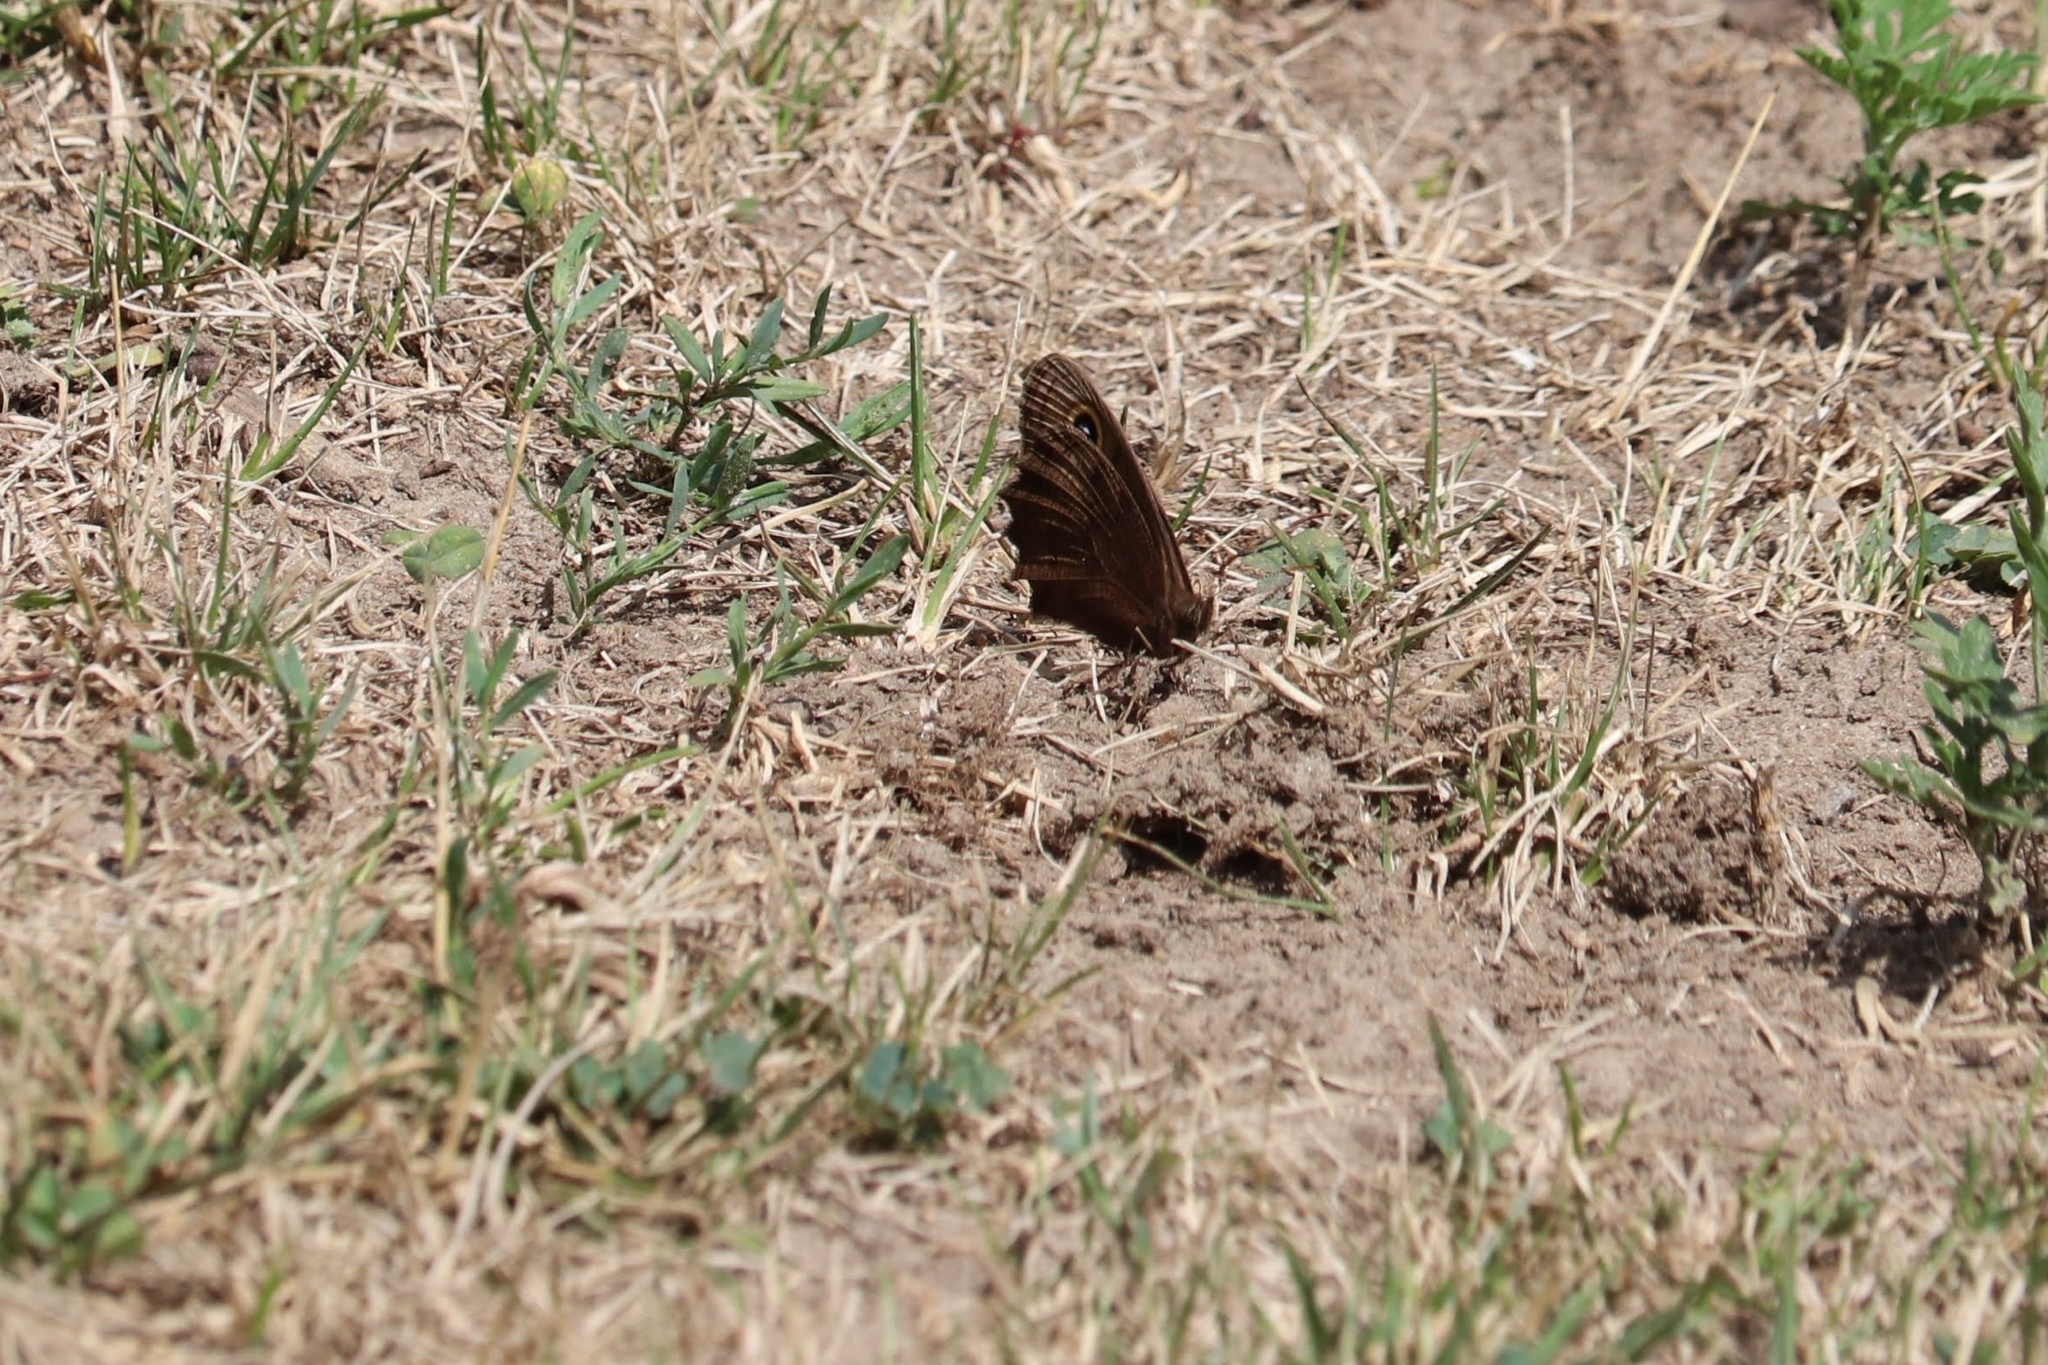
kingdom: Animalia
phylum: Arthropoda
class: Insecta
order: Lepidoptera
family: Nymphalidae
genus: Cercyonis
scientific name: Cercyonis pegala
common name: Common wood-nymph
